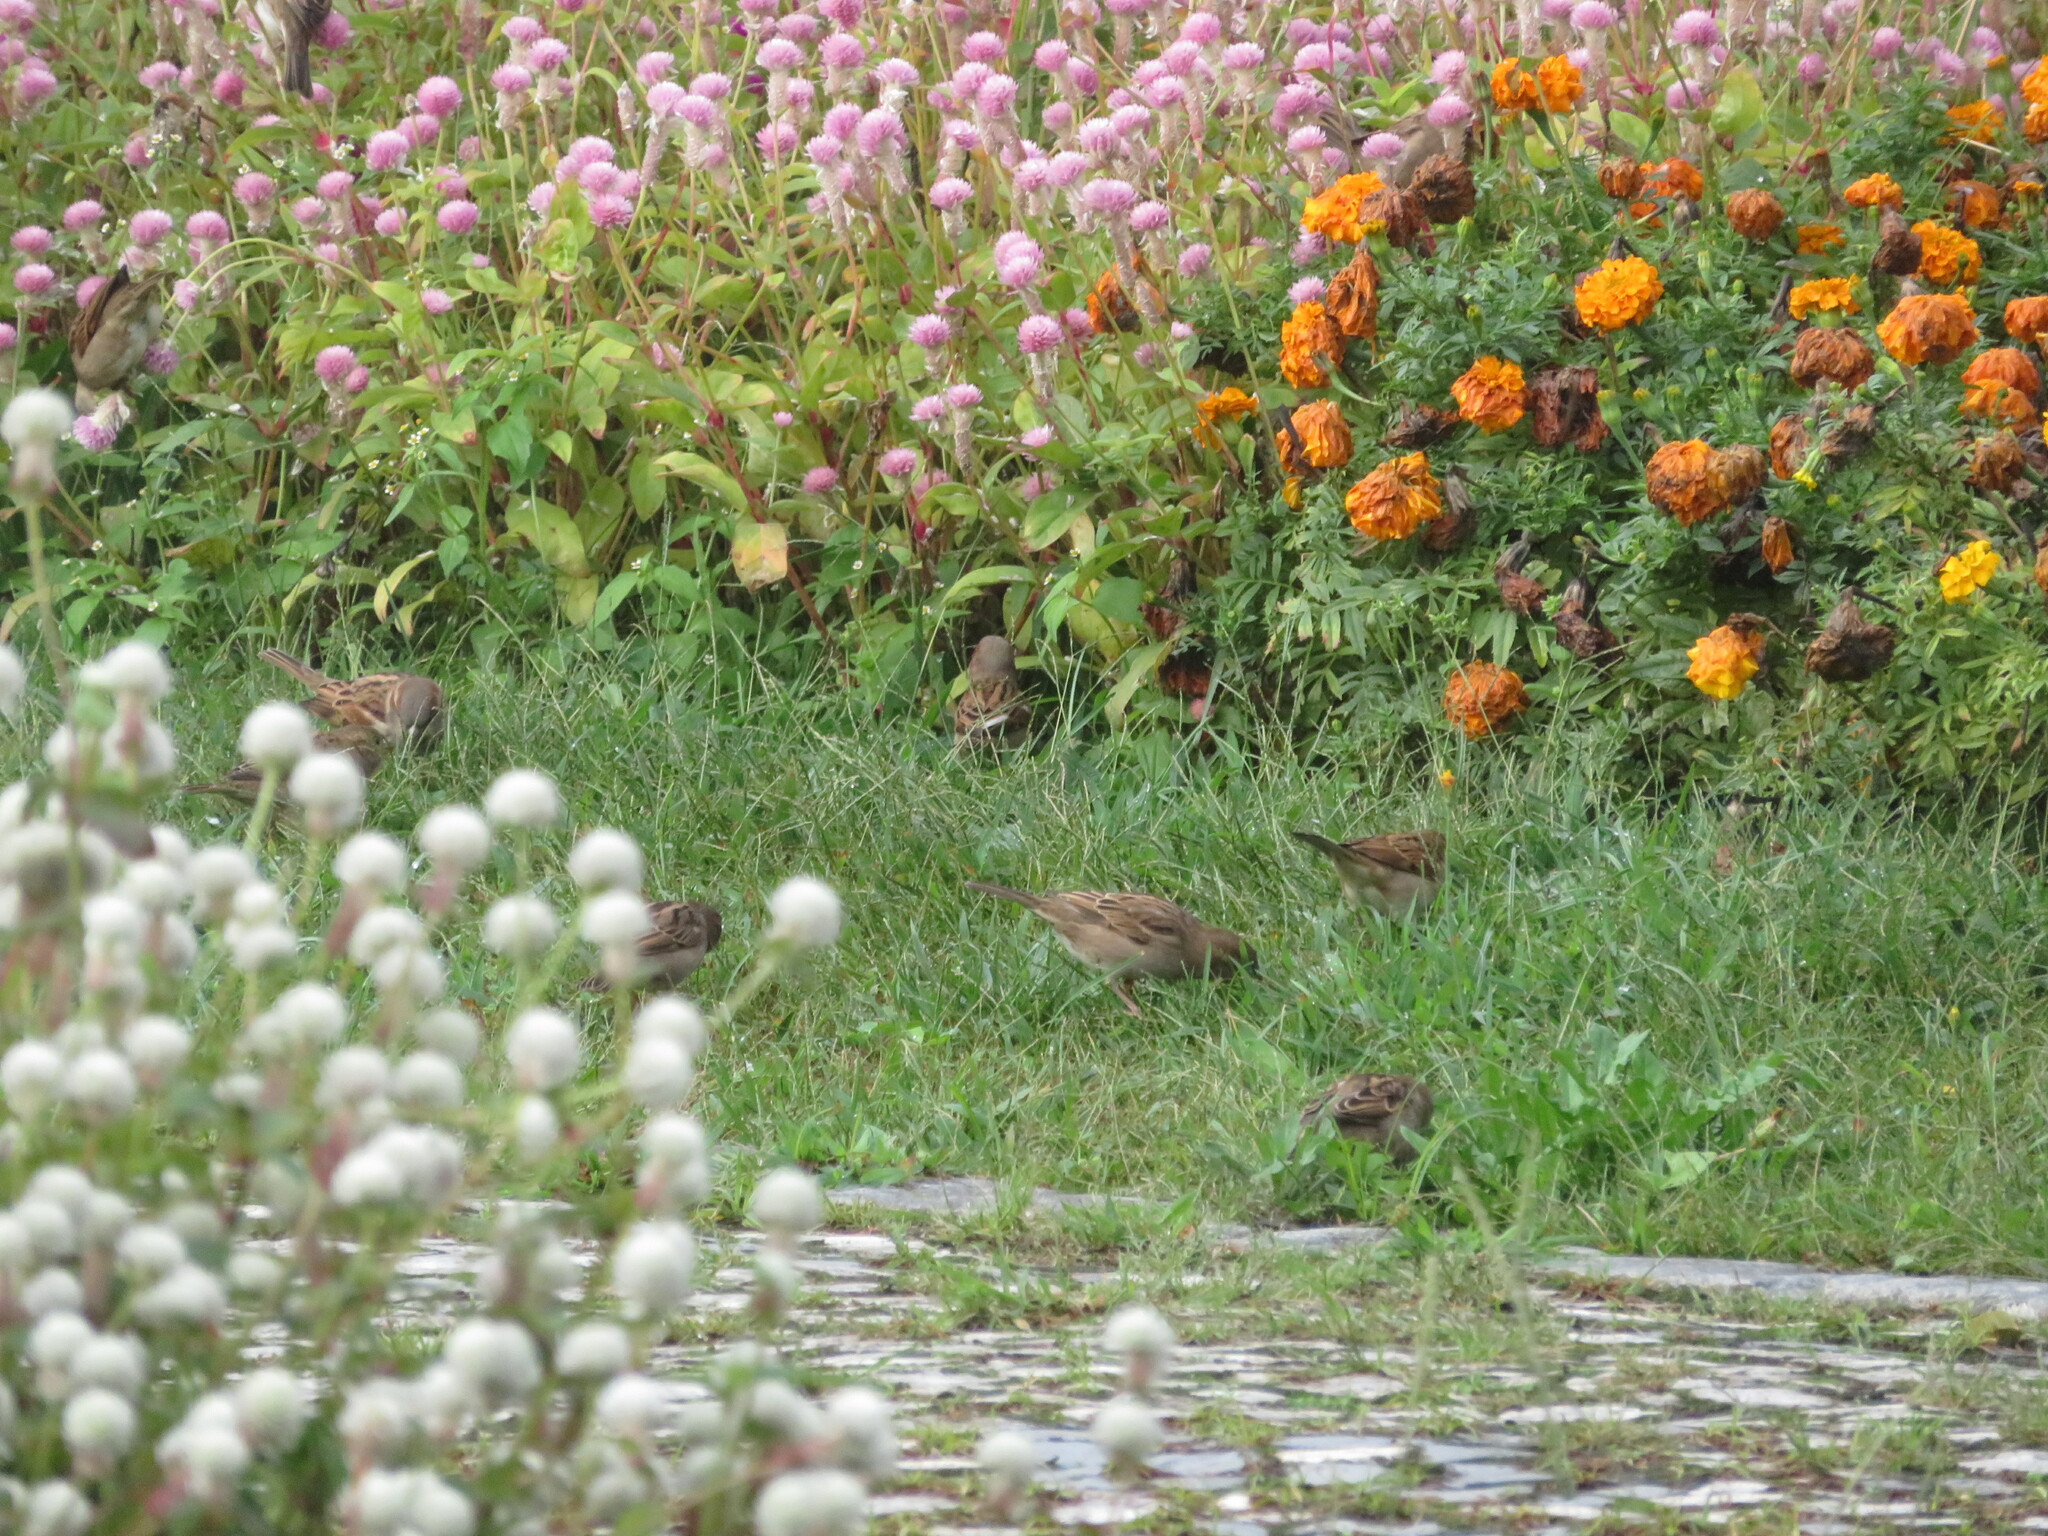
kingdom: Animalia
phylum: Chordata
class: Aves
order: Passeriformes
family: Passeridae
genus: Passer
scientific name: Passer domesticus
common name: House sparrow
